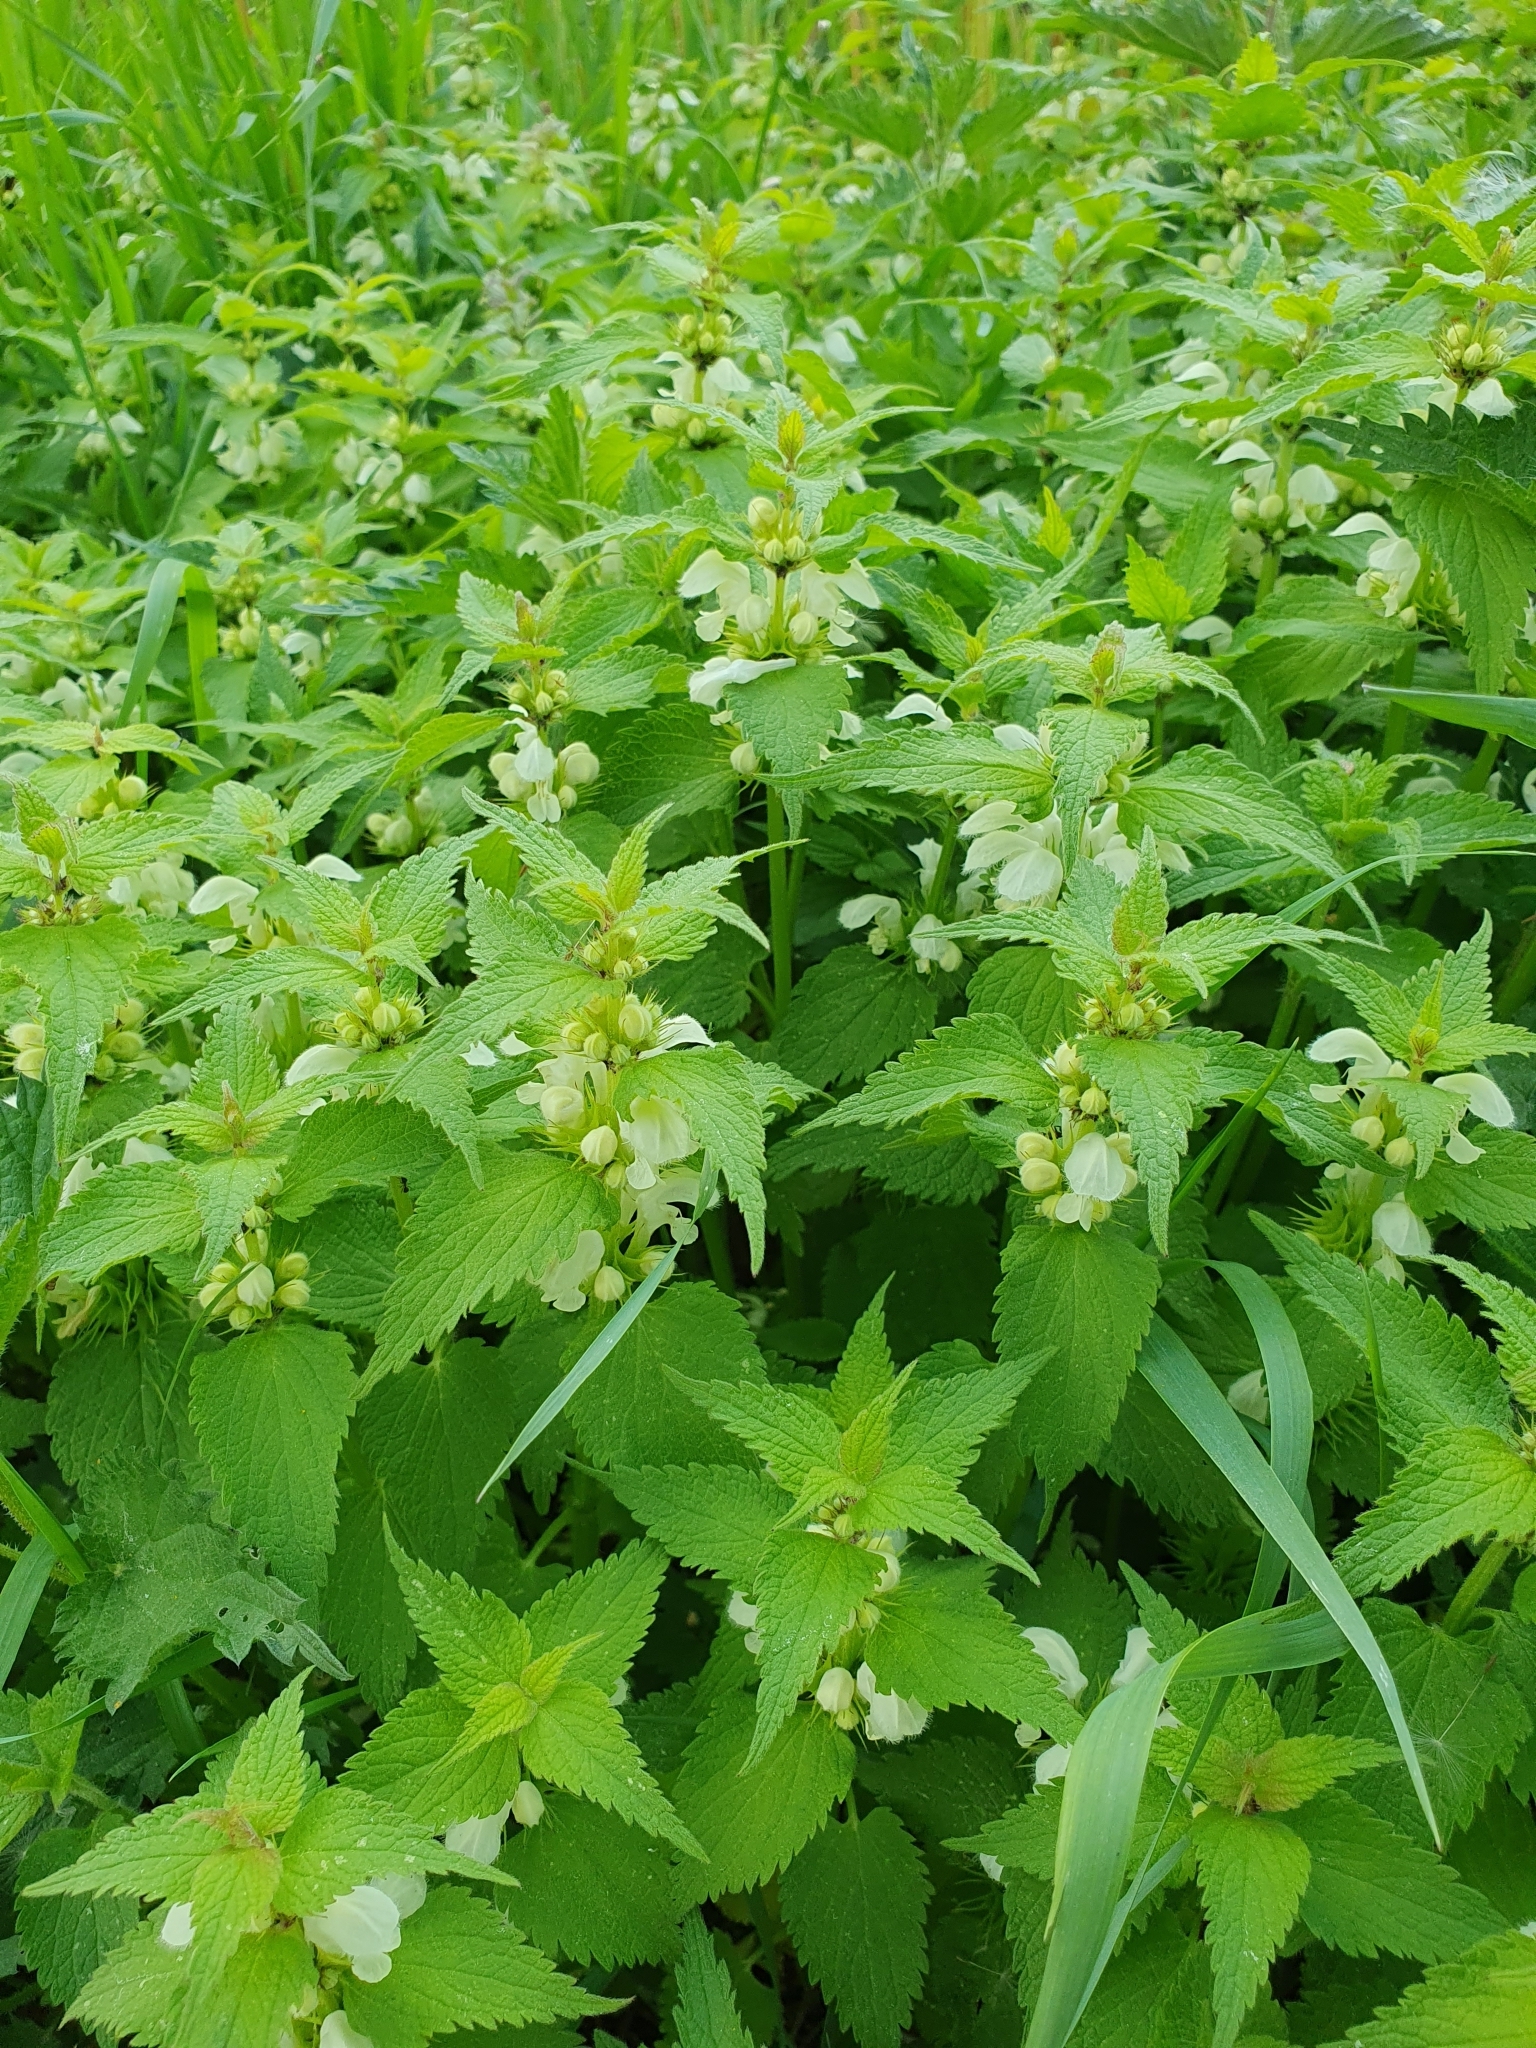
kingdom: Plantae
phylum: Tracheophyta
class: Magnoliopsida
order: Lamiales
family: Lamiaceae
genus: Lamium
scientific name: Lamium album
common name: White dead-nettle
